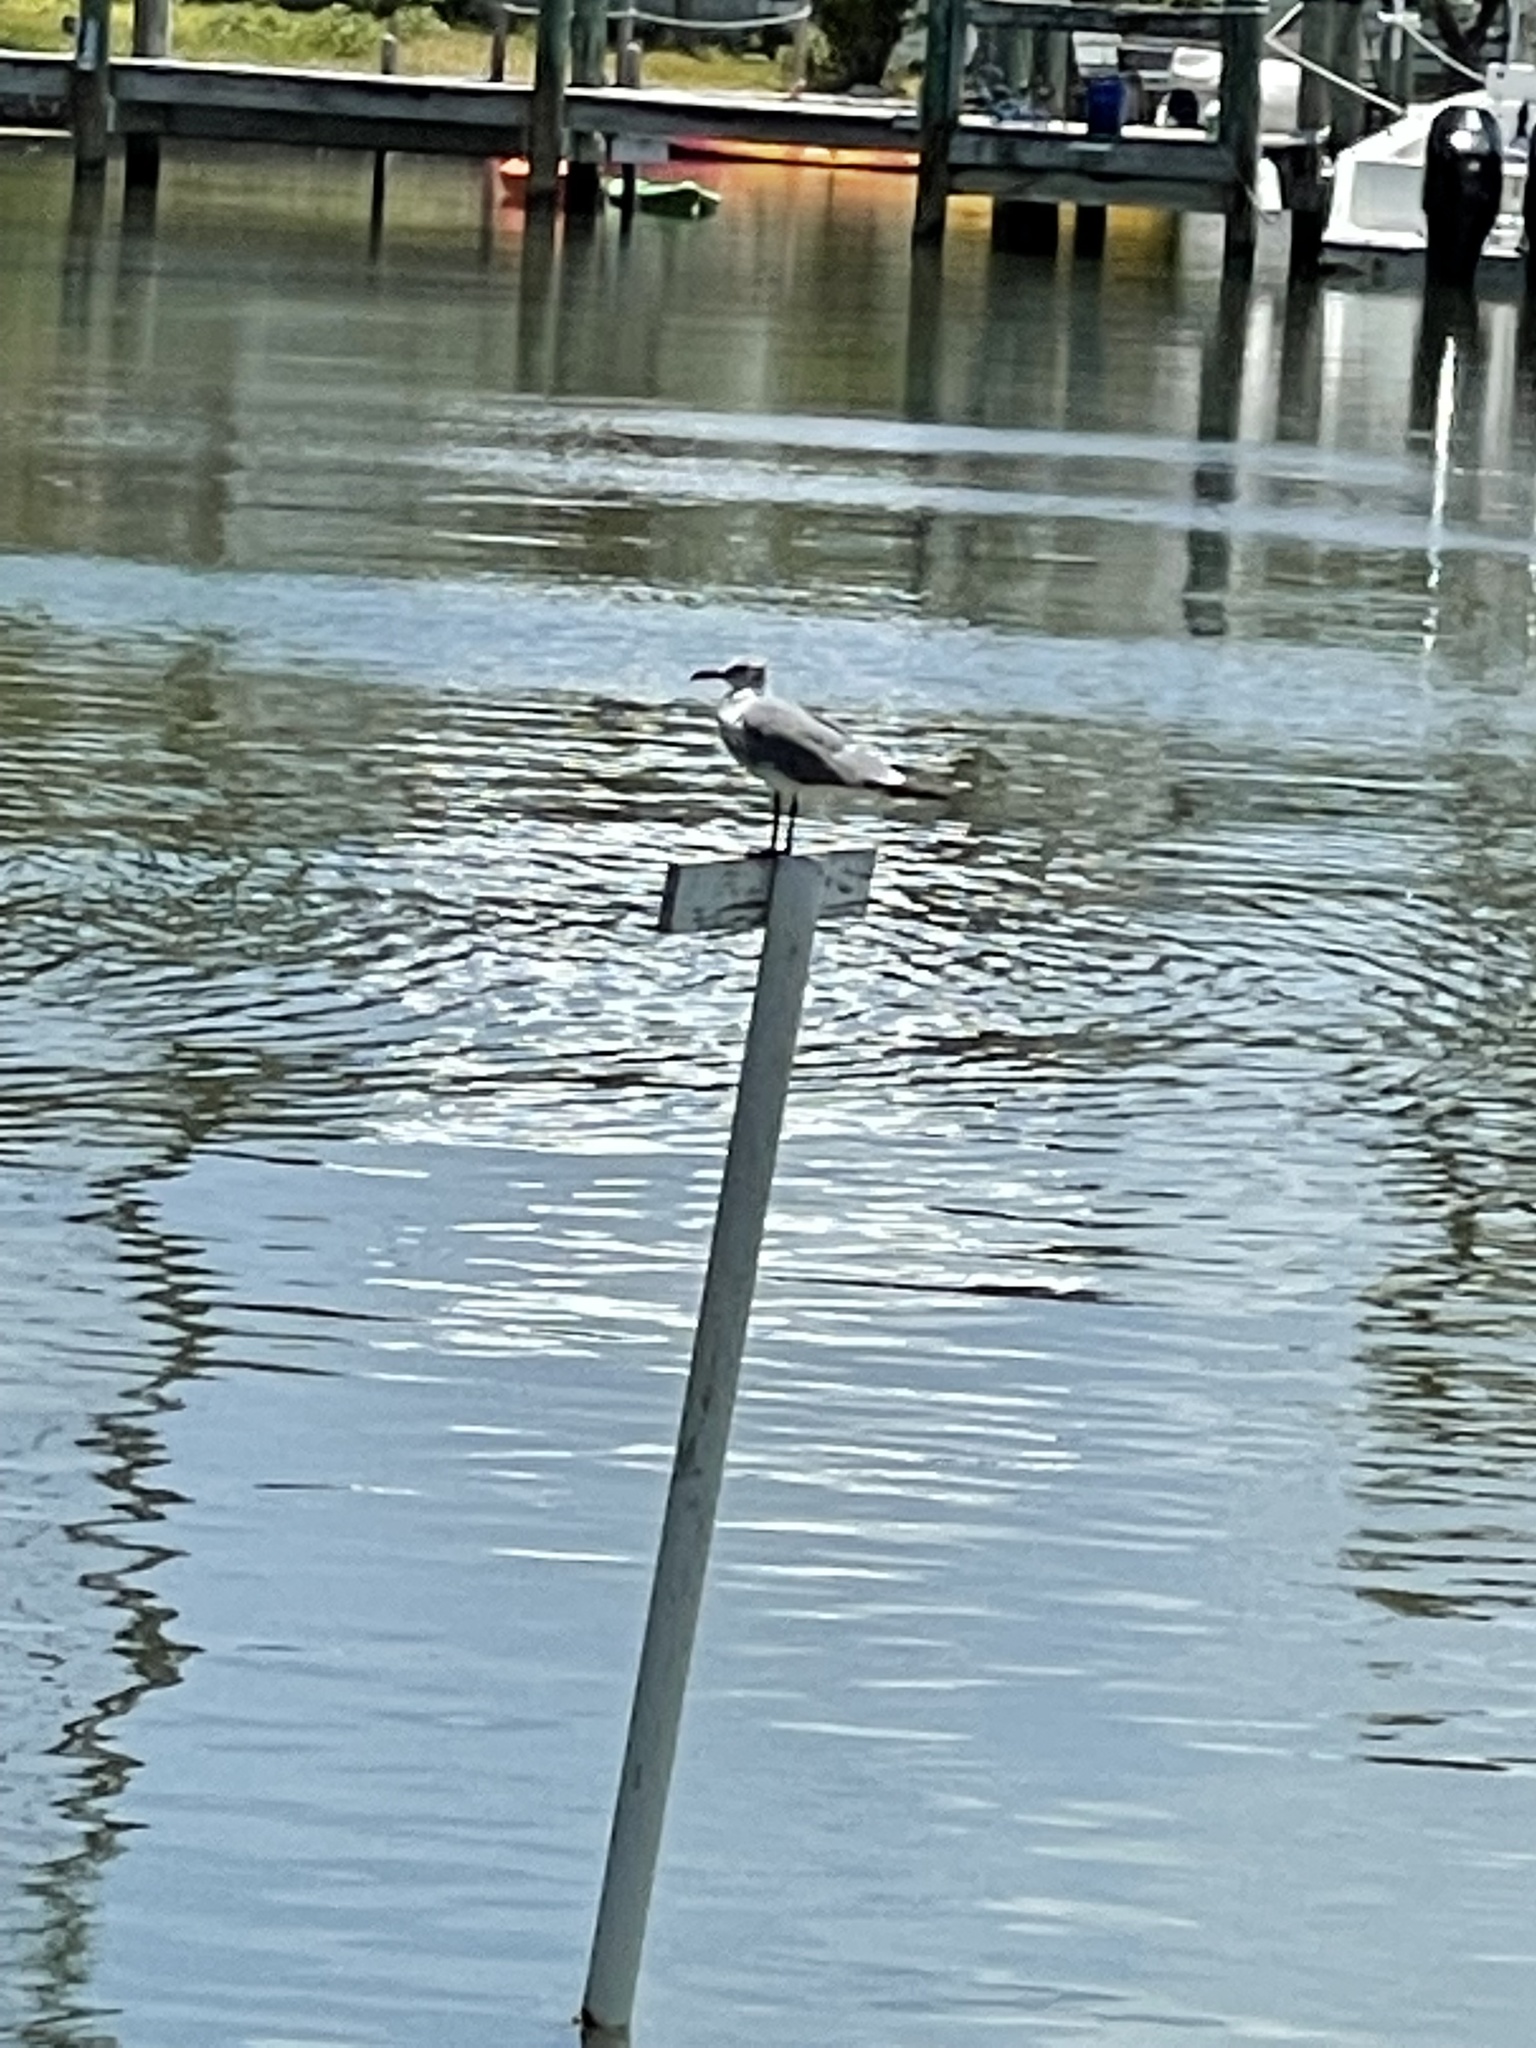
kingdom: Animalia
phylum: Chordata
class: Aves
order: Charadriiformes
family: Laridae
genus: Leucophaeus
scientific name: Leucophaeus atricilla
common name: Laughing gull
